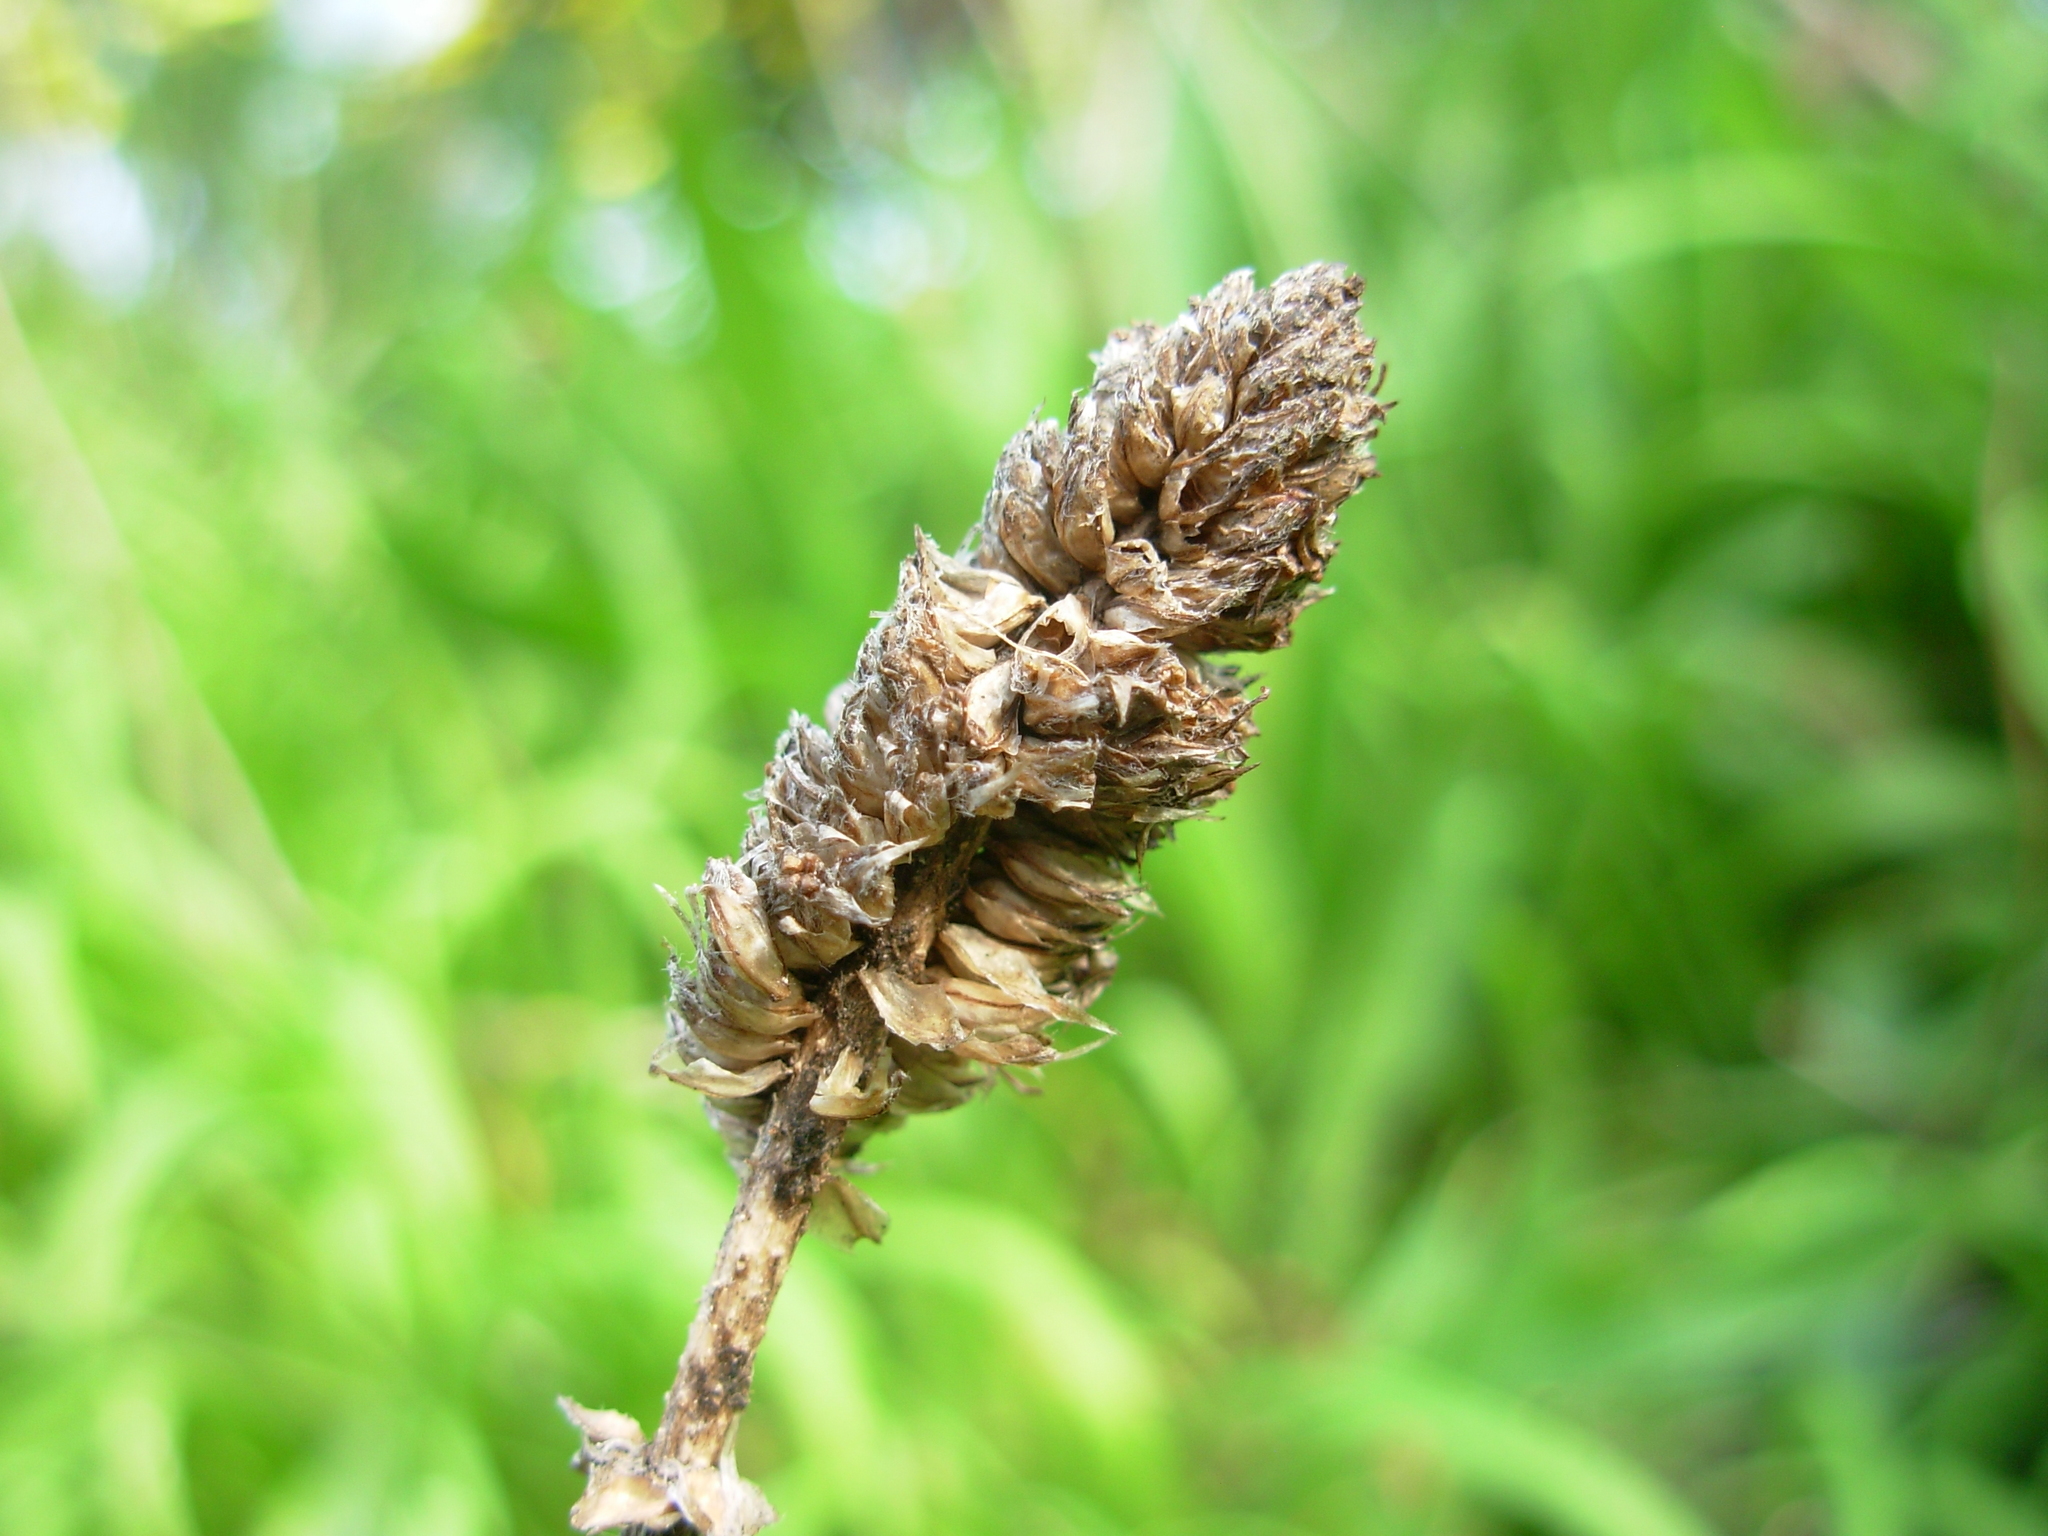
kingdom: Plantae
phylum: Tracheophyta
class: Magnoliopsida
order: Lamiales
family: Plantaginaceae
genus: Plantago
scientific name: Plantago lanceolata
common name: Ribwort plantain
